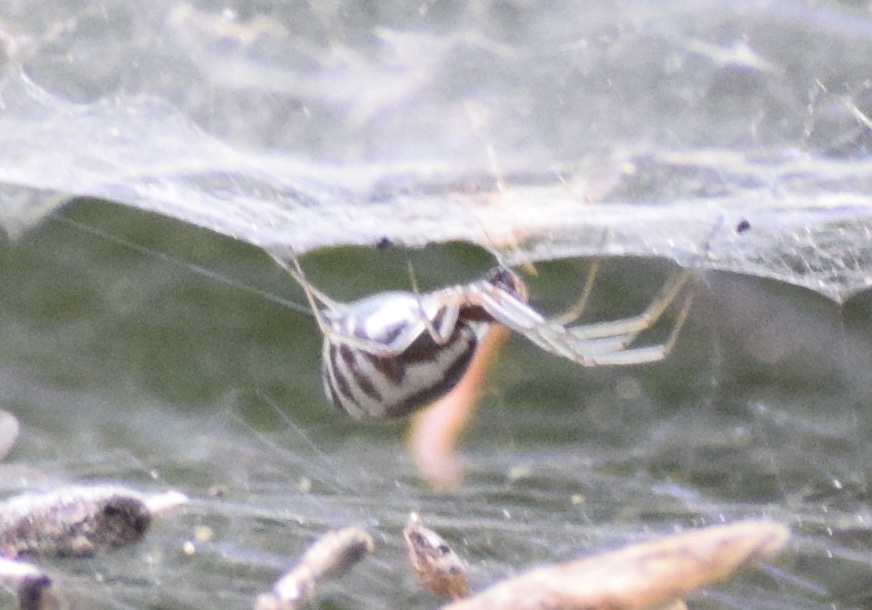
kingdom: Animalia
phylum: Arthropoda
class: Arachnida
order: Araneae
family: Linyphiidae
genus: Frontinella
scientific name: Frontinella pyramitela
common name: Bowl-and-doily spider
